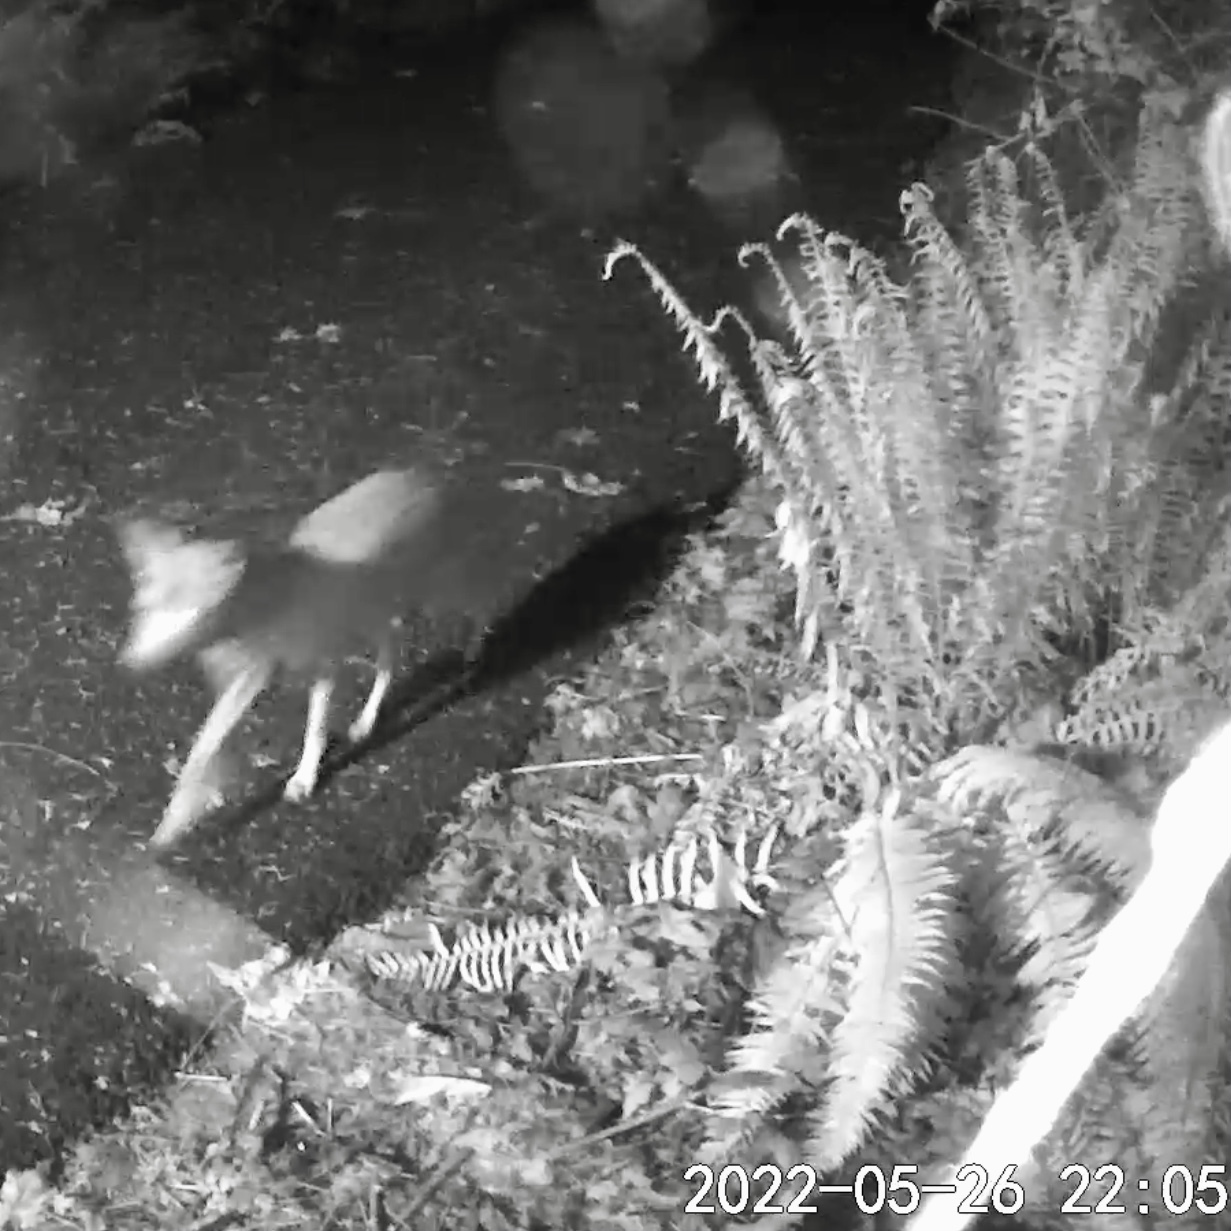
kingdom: Animalia
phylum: Chordata
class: Mammalia
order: Carnivora
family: Canidae
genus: Canis
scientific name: Canis latrans
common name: Coyote
